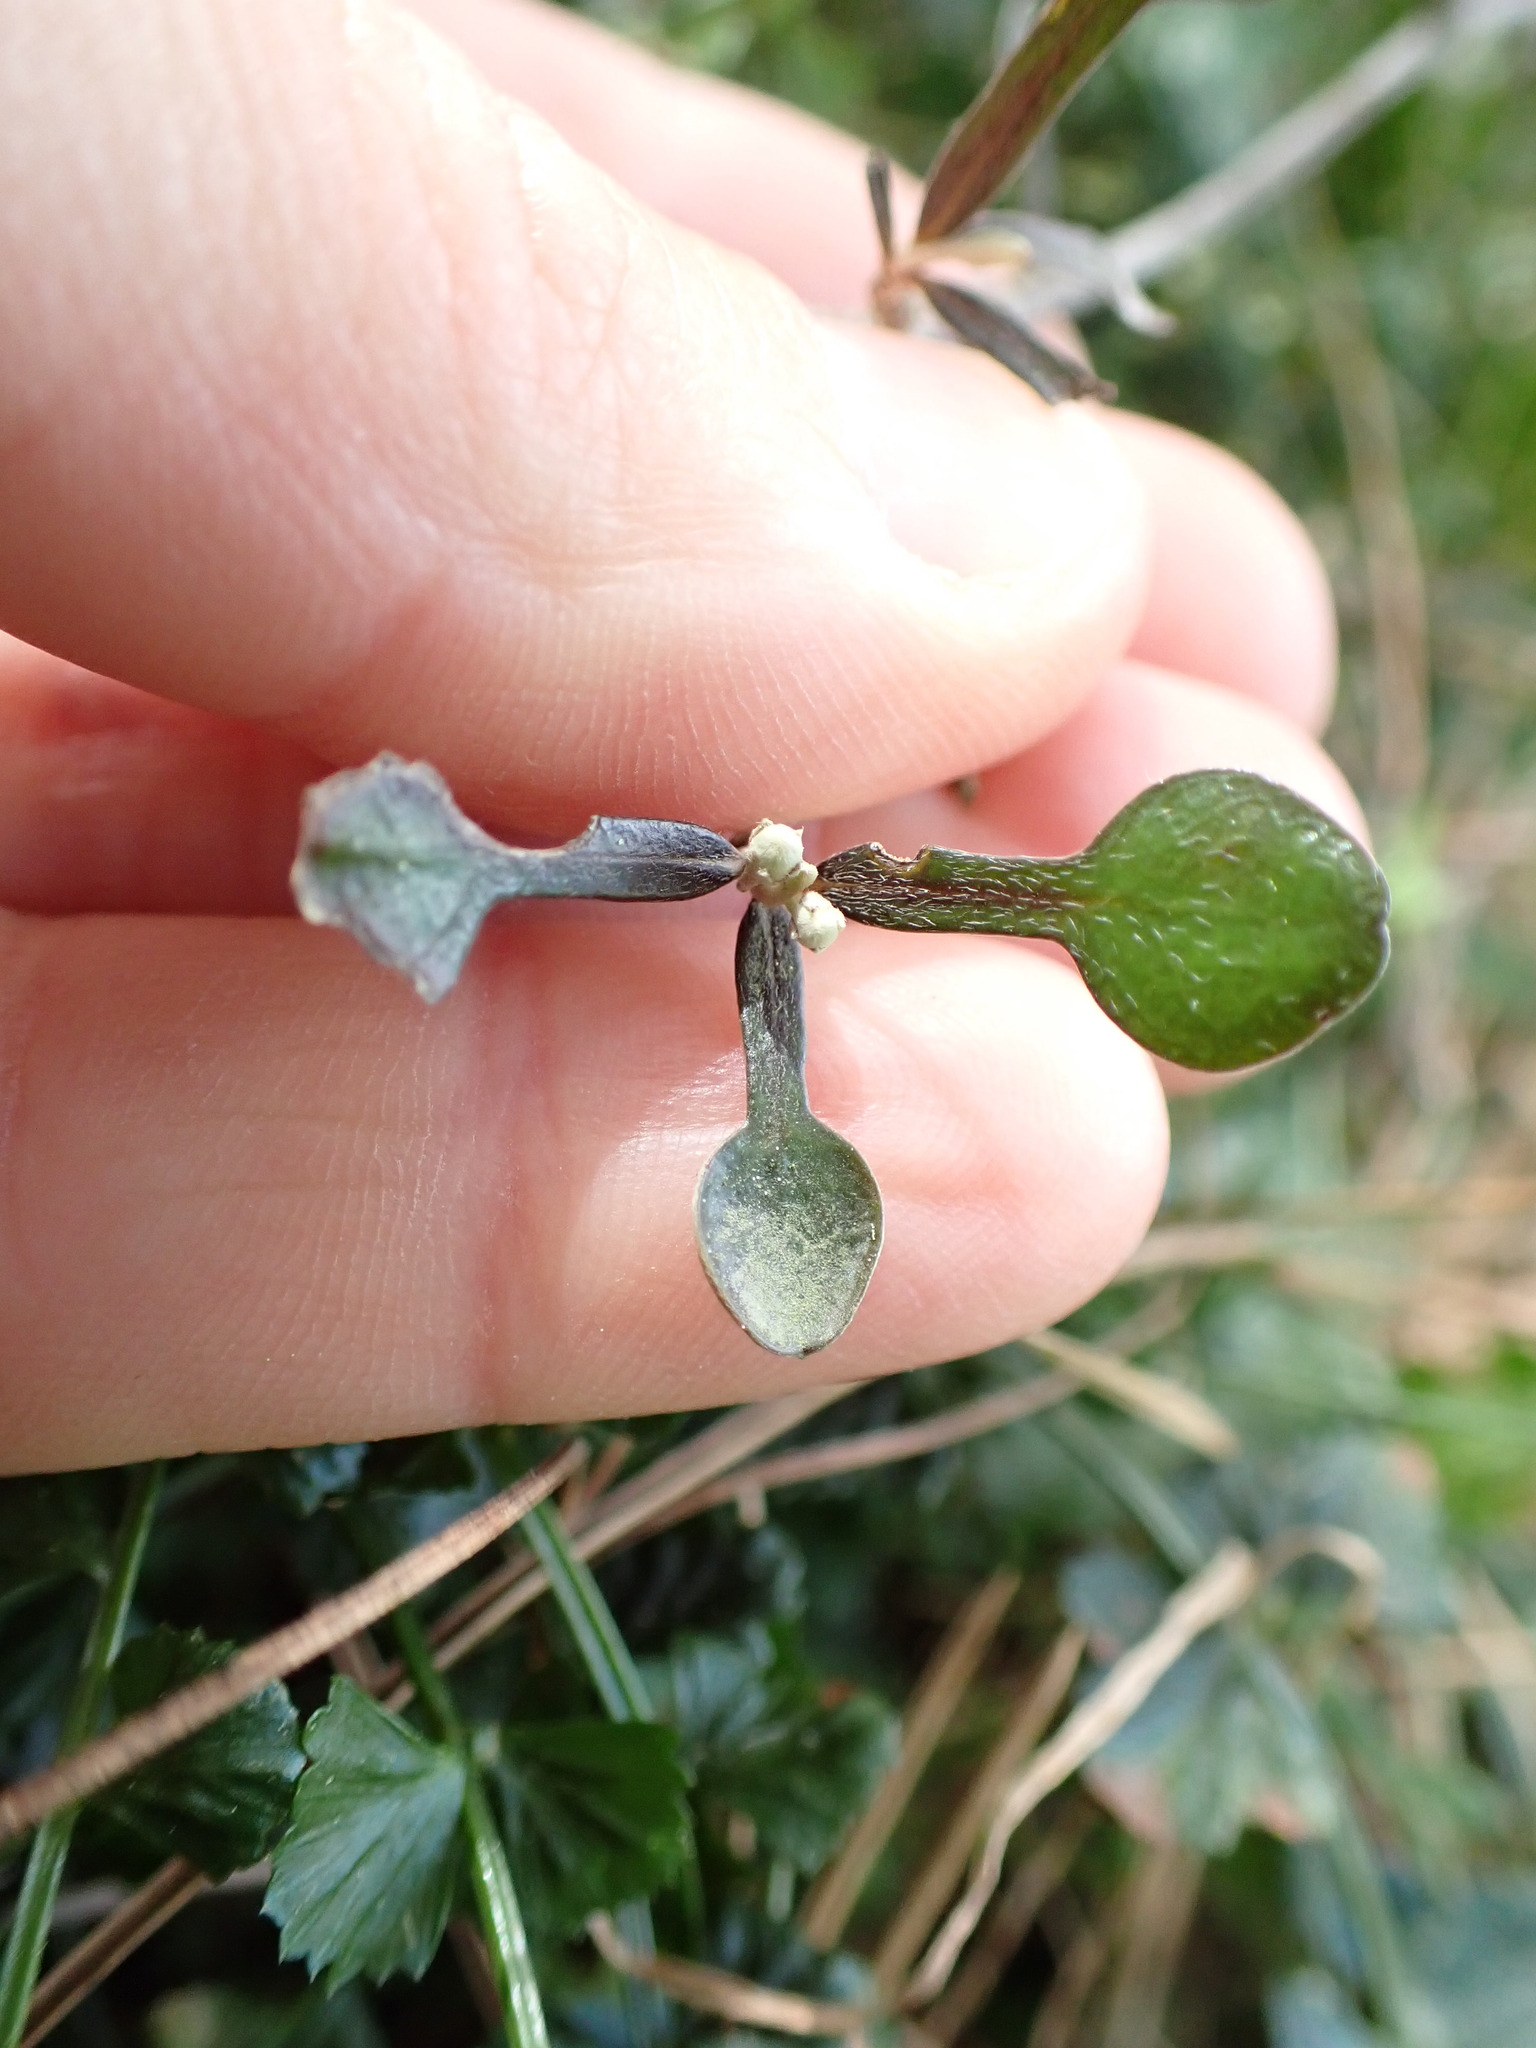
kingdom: Plantae
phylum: Tracheophyta
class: Magnoliopsida
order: Asterales
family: Argophyllaceae
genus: Corokia
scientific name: Corokia cotoneaster
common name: Wire nettingbush
